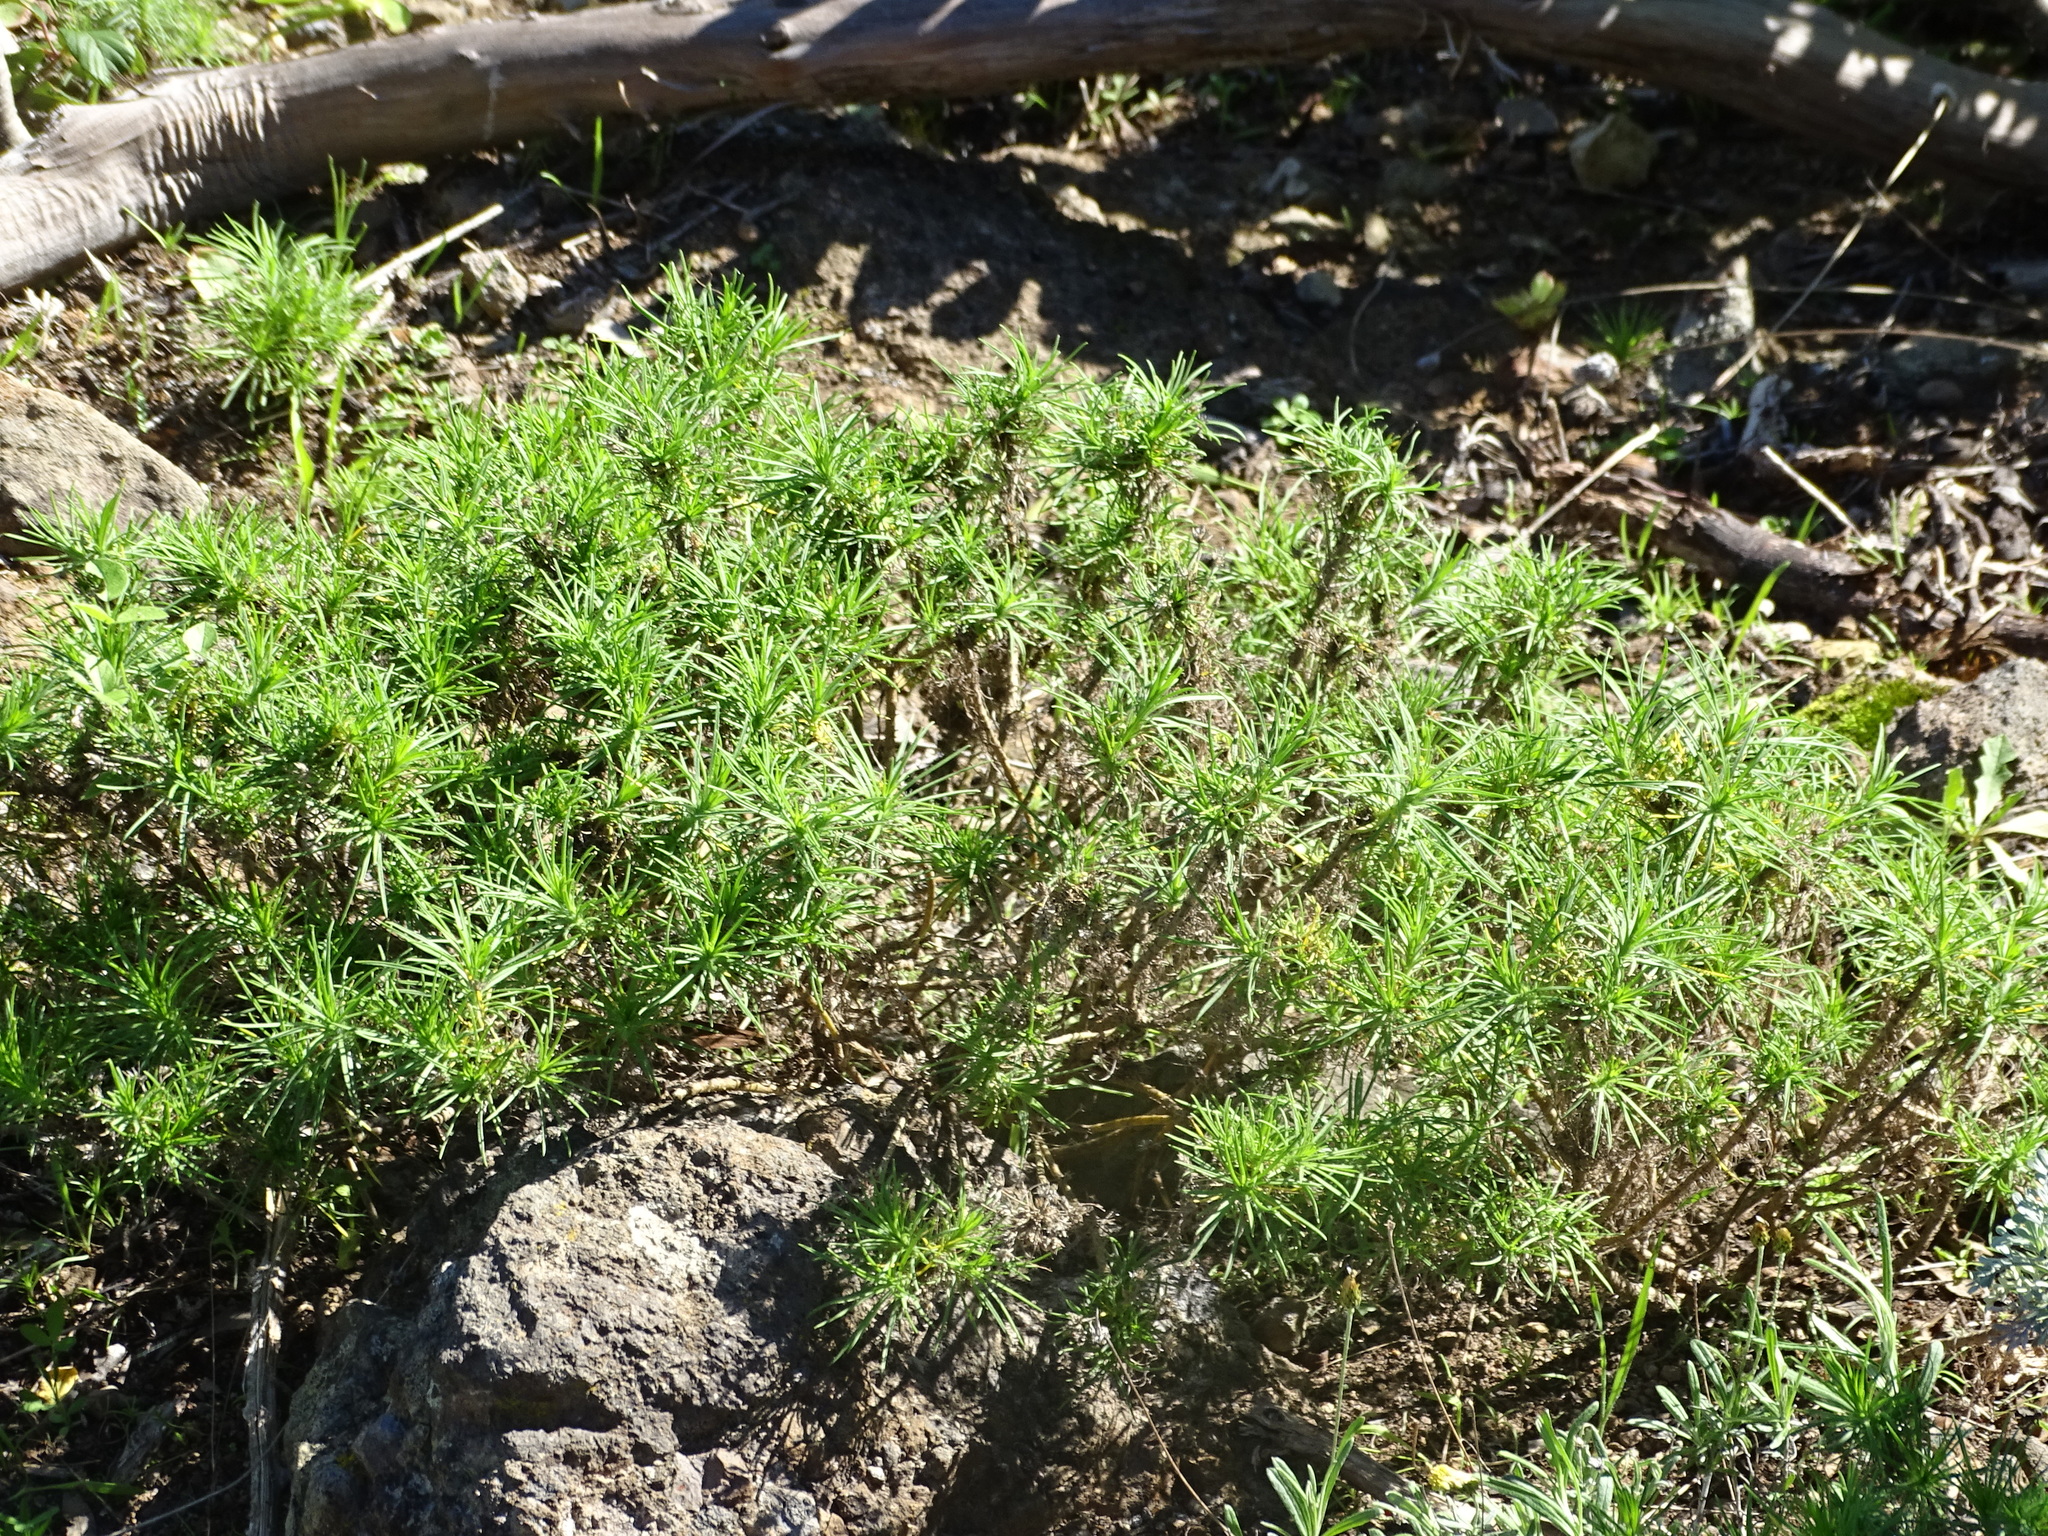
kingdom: Plantae
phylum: Tracheophyta
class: Magnoliopsida
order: Lamiales
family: Plantaginaceae
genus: Plantago
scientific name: Plantago arborescens
